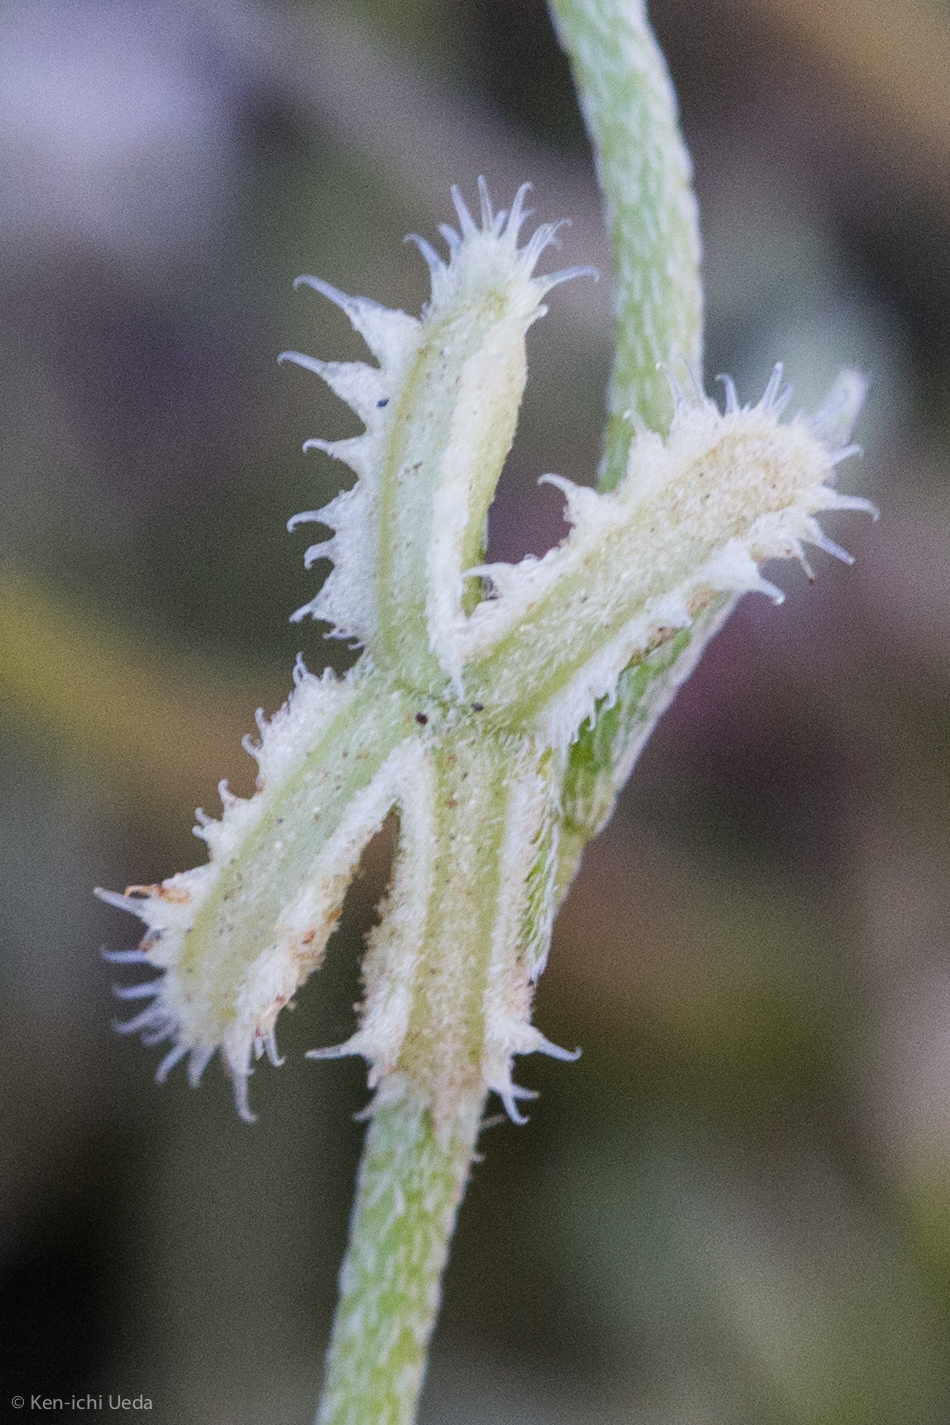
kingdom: Plantae
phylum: Tracheophyta
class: Magnoliopsida
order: Boraginales
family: Boraginaceae
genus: Pectocarya
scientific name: Pectocarya linearis
